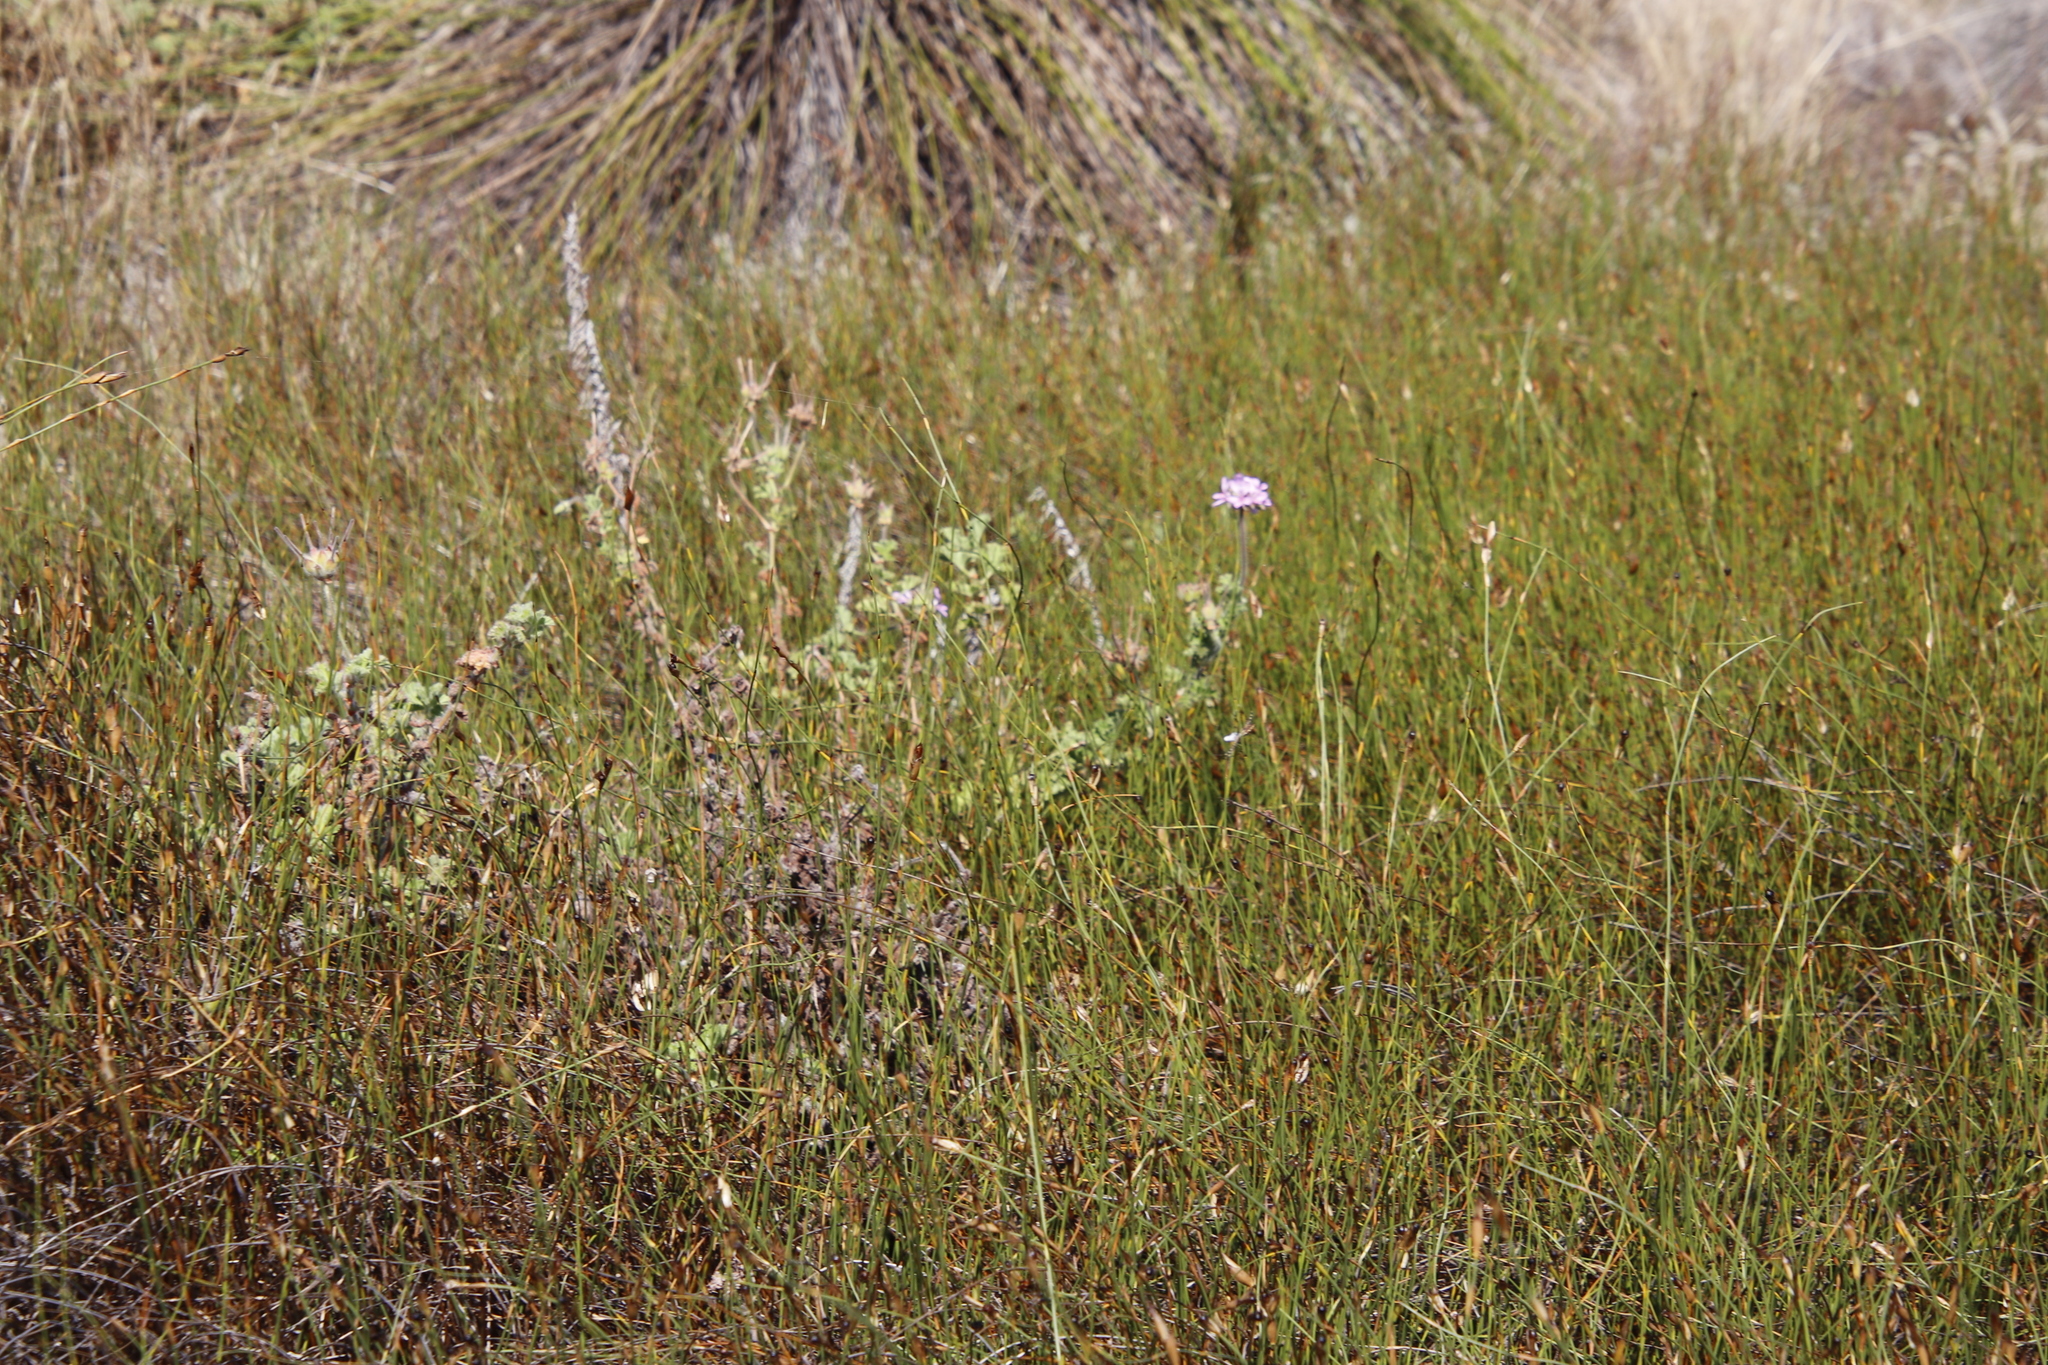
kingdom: Plantae
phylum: Tracheophyta
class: Magnoliopsida
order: Geraniales
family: Geraniaceae
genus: Pelargonium
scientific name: Pelargonium capitatum
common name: Rose scented geranium
